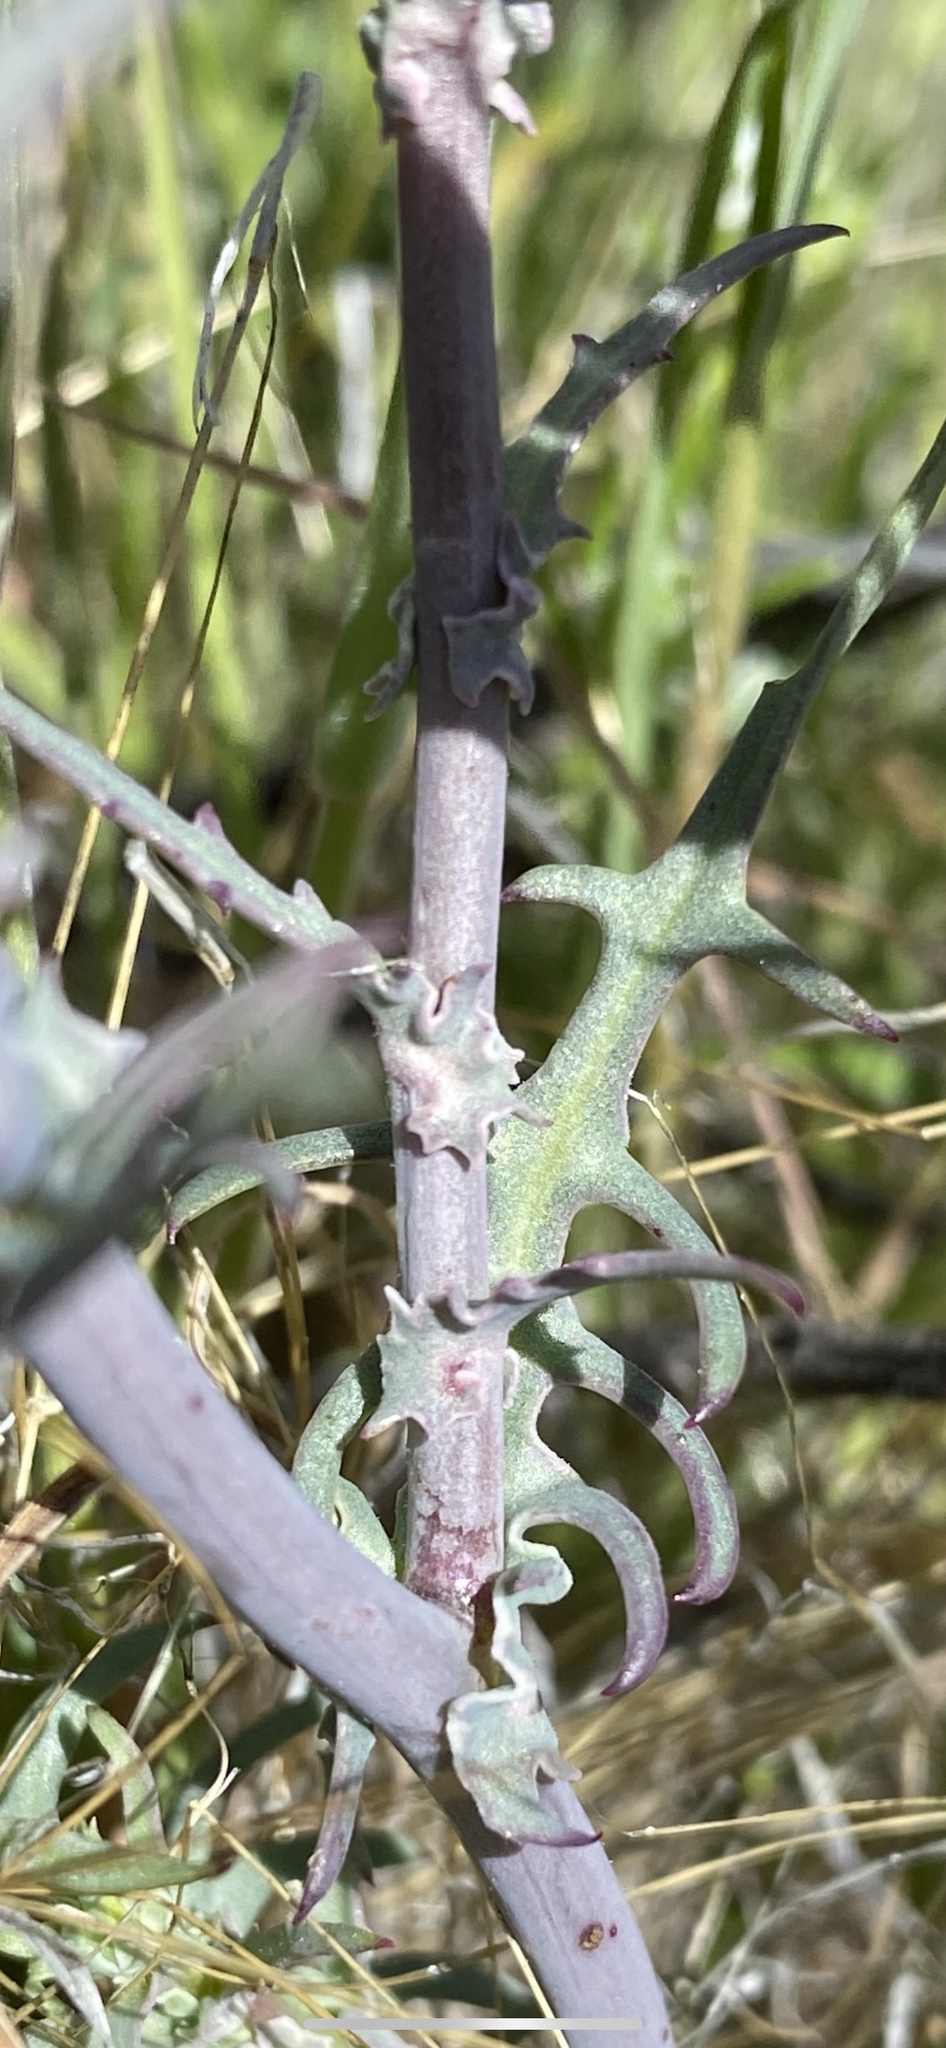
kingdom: Plantae
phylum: Tracheophyta
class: Magnoliopsida
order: Asterales
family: Asteraceae
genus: Rafinesquia
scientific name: Rafinesquia neomexicana
